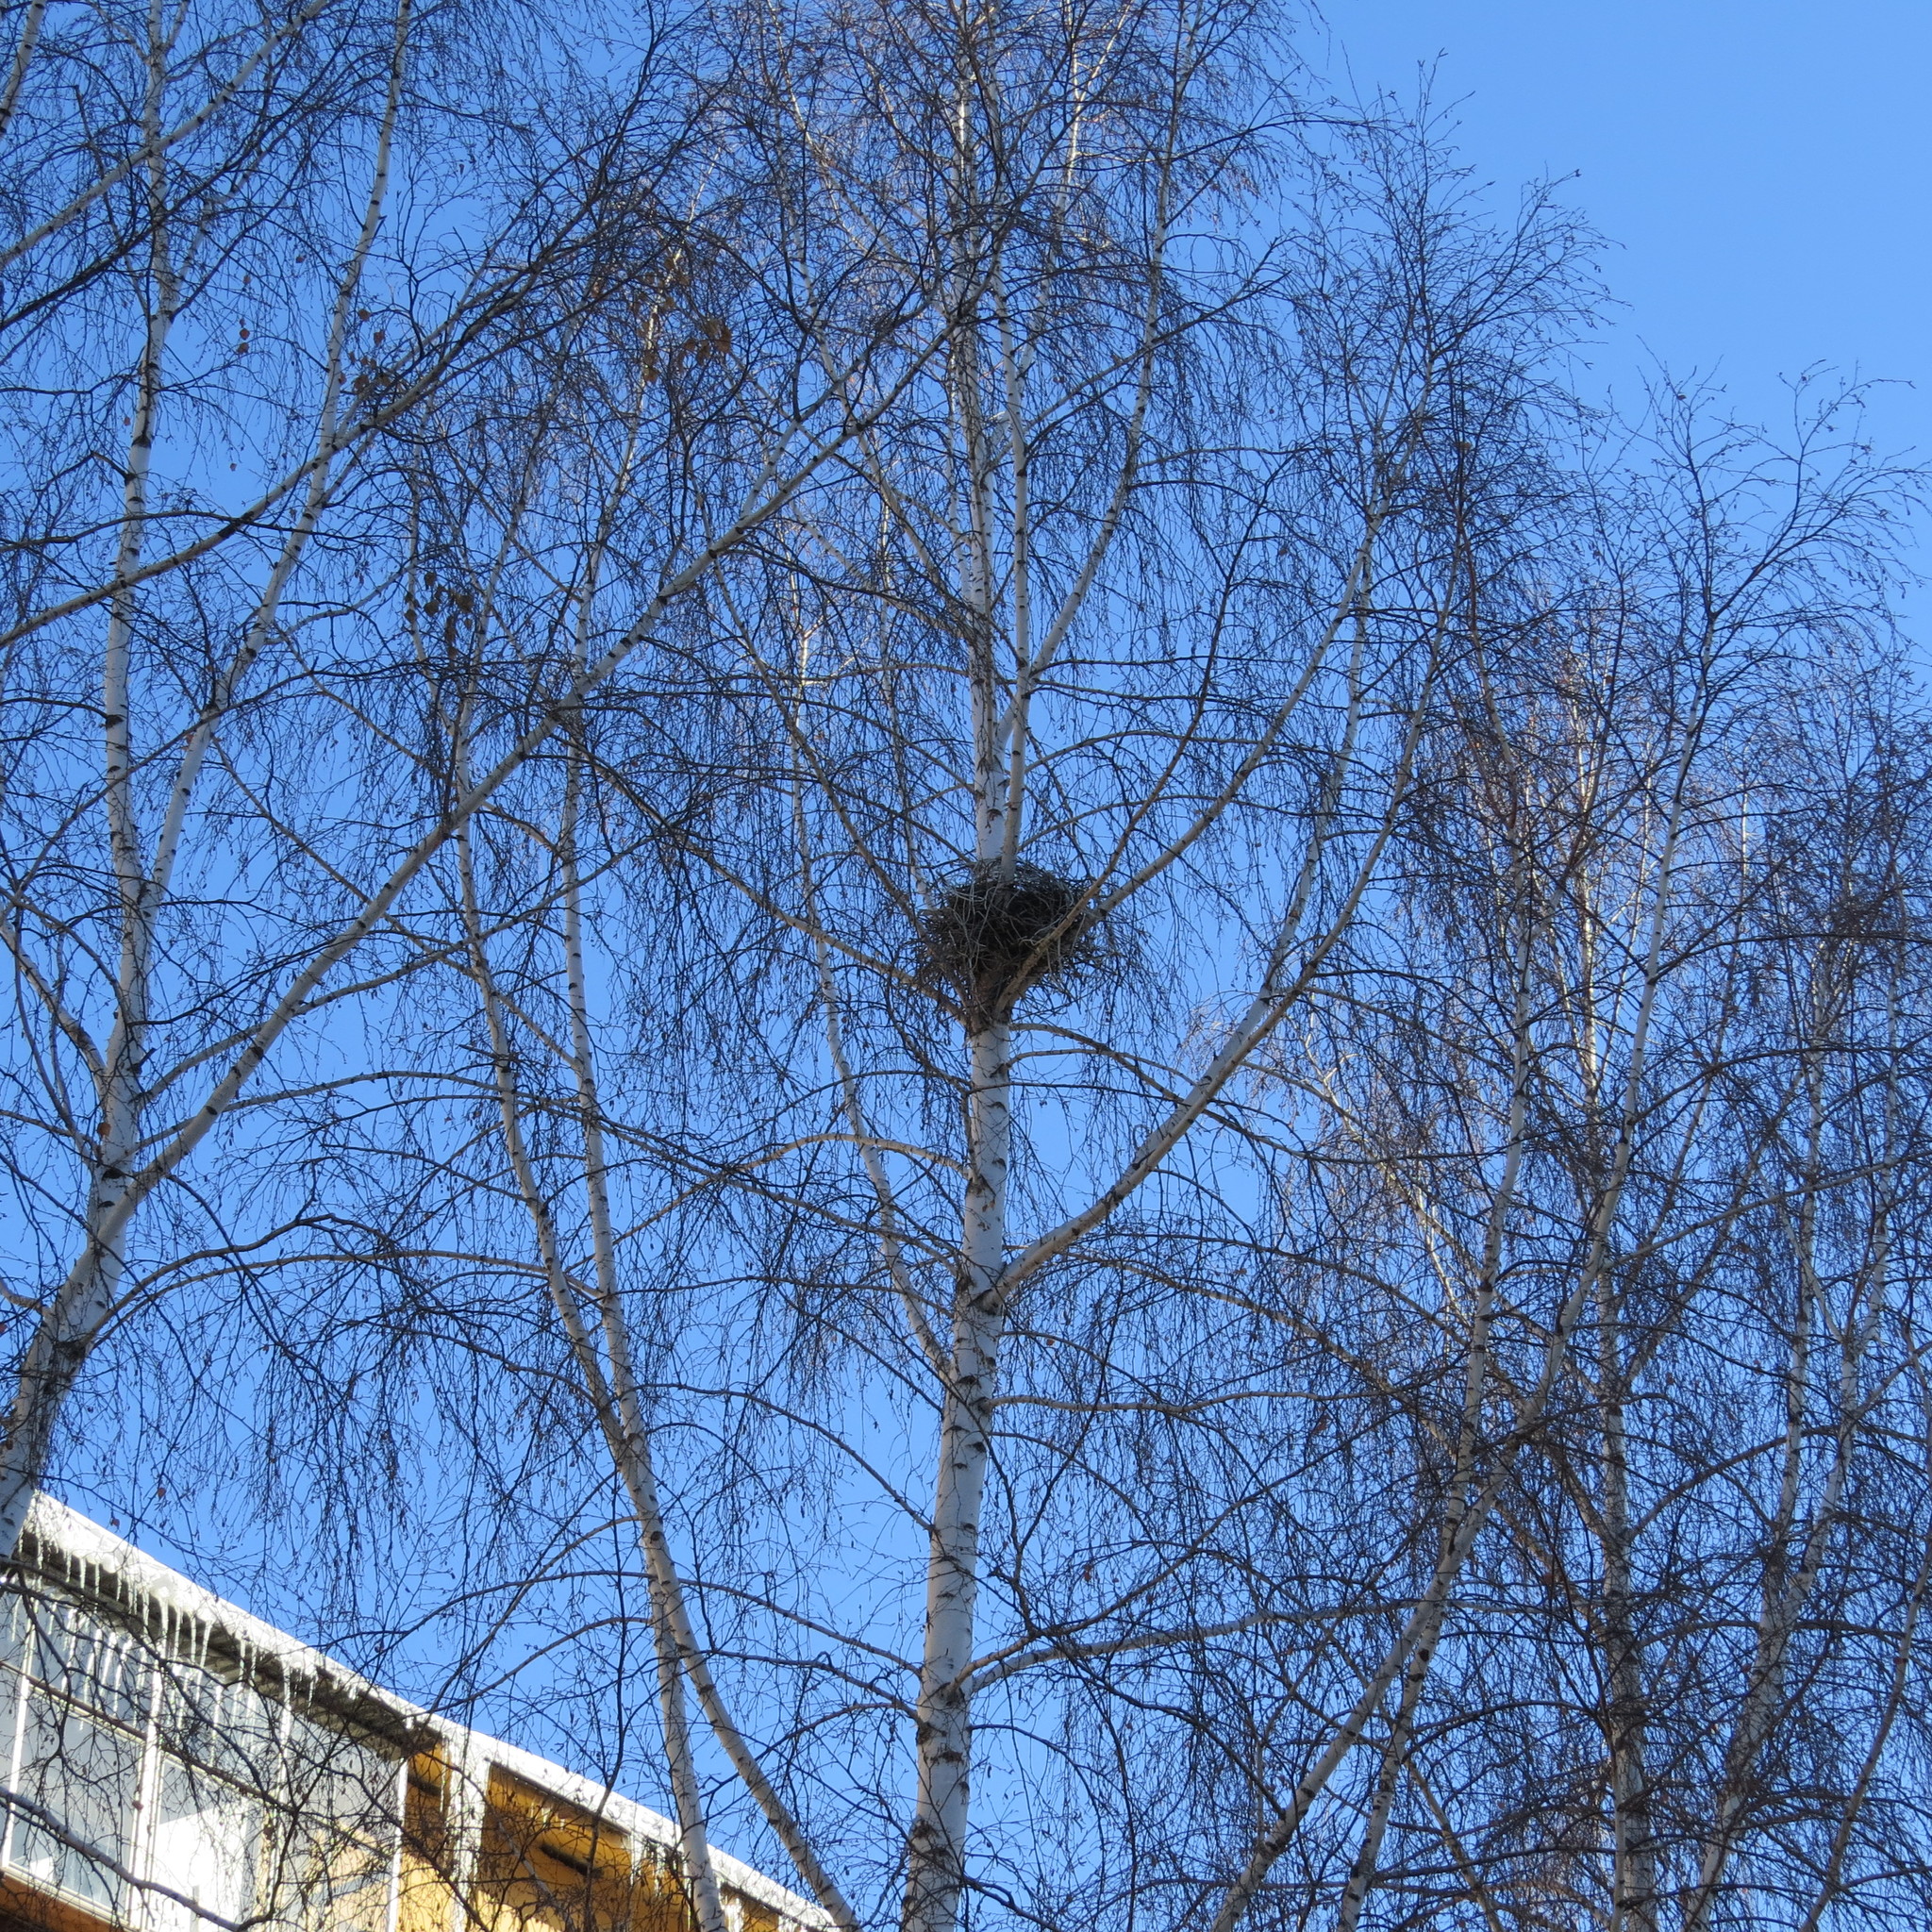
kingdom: Animalia
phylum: Chordata
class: Aves
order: Passeriformes
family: Corvidae
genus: Corvus
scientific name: Corvus cornix
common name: Hooded crow
